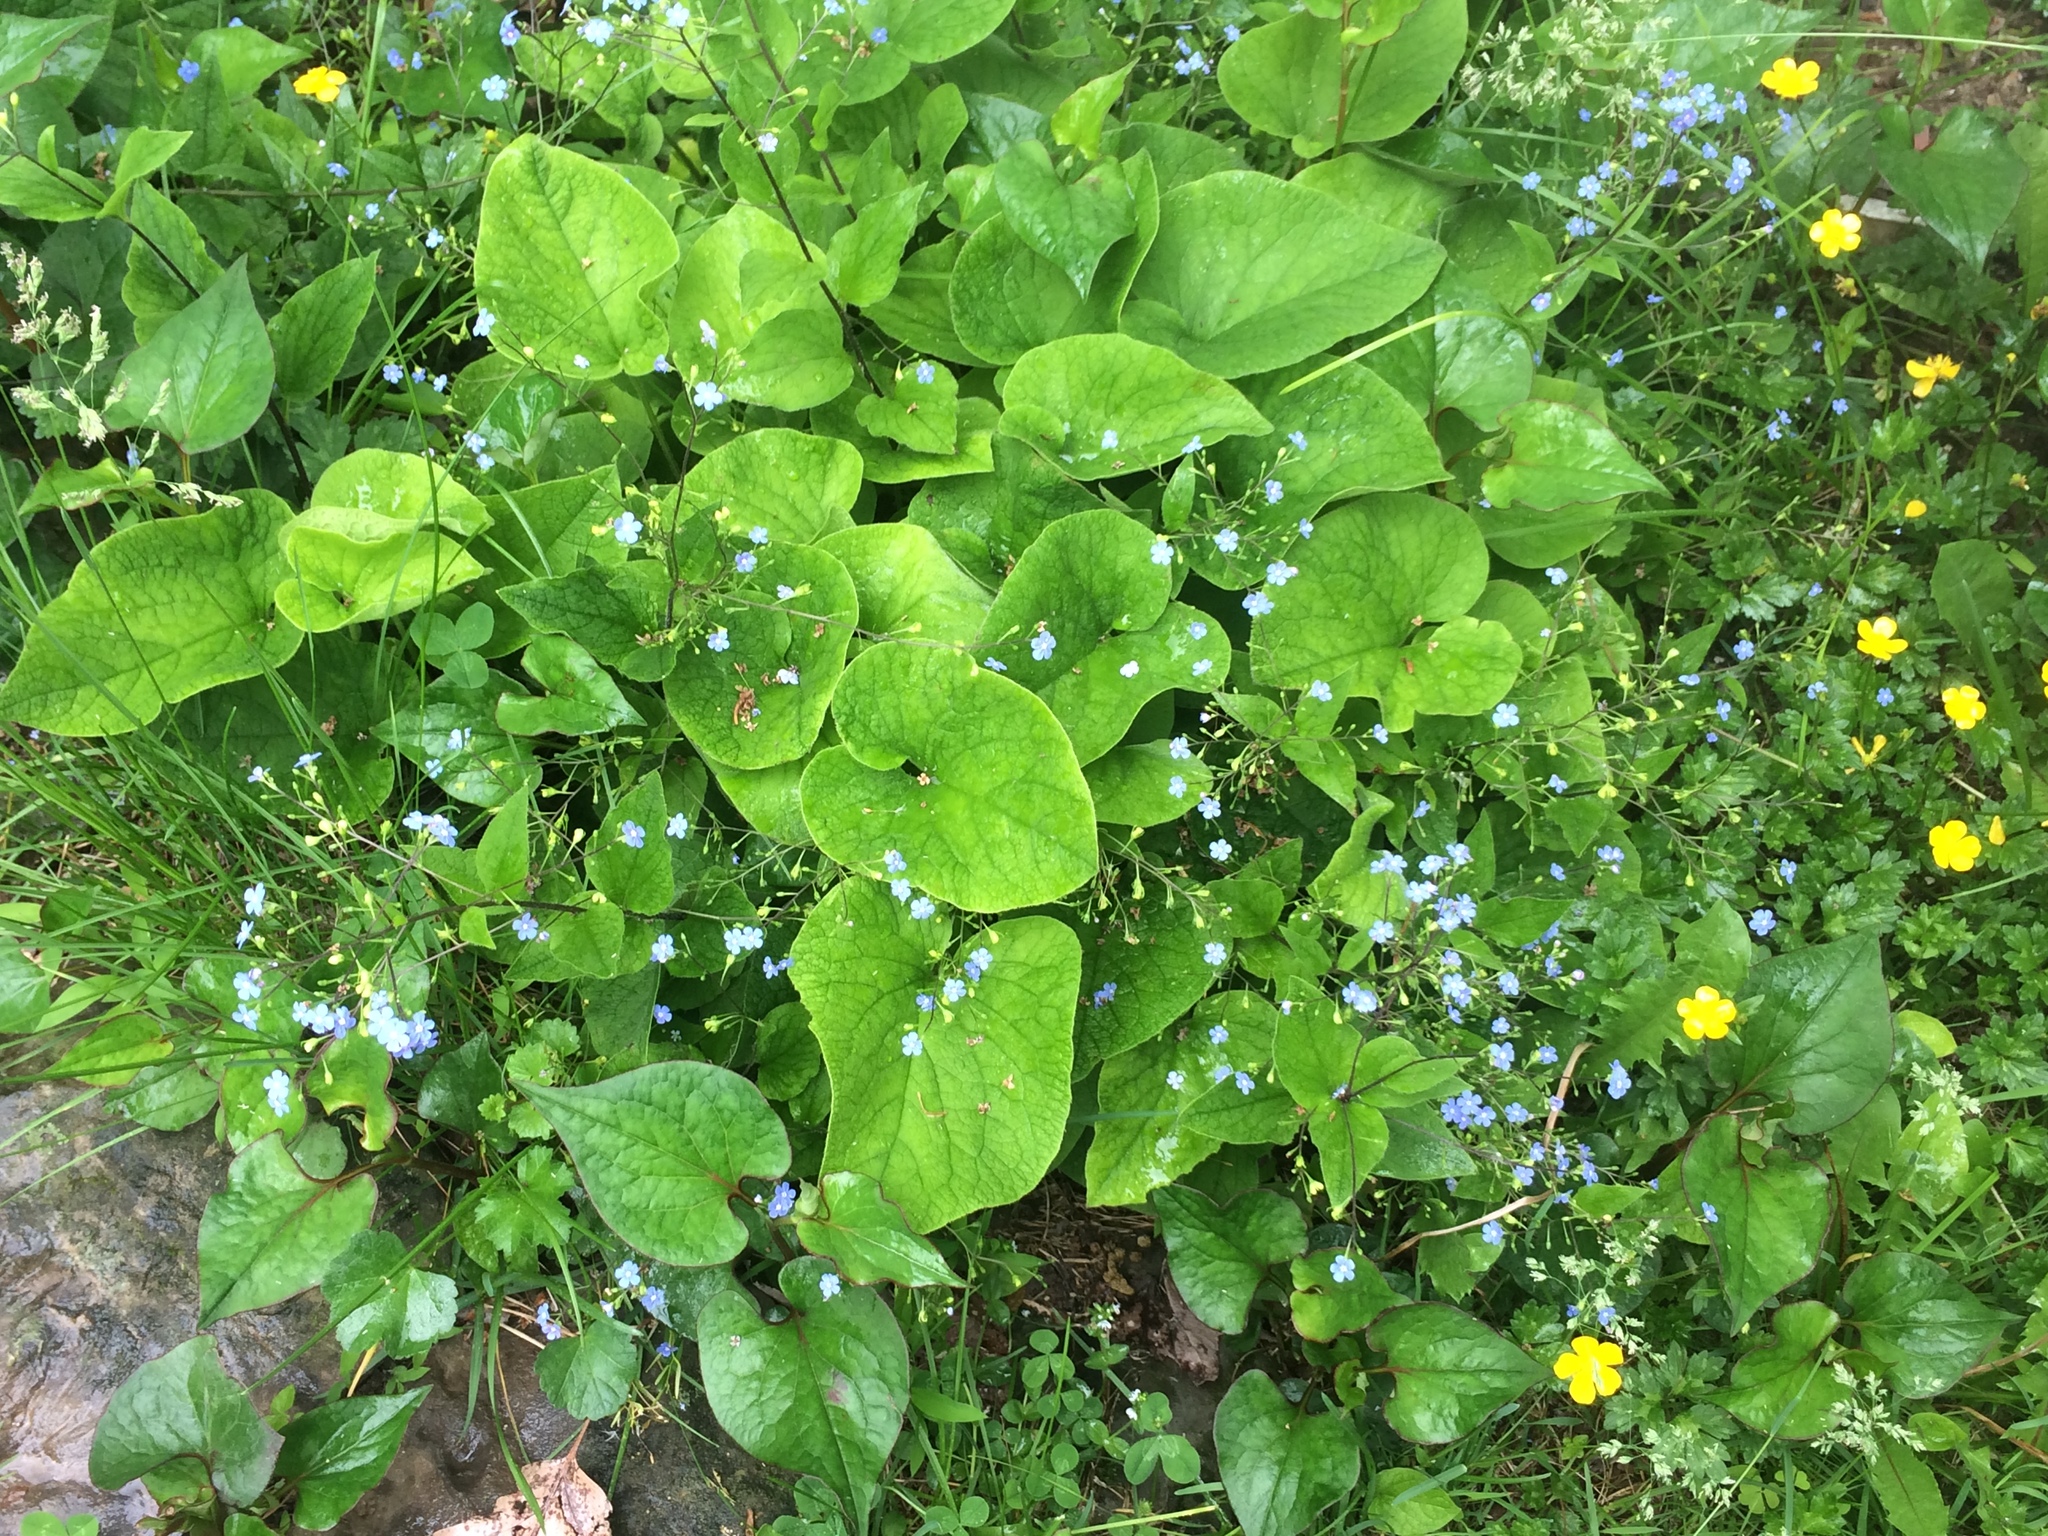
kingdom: Plantae
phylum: Tracheophyta
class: Magnoliopsida
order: Boraginales
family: Boraginaceae
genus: Brunnera
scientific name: Brunnera macrophylla
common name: Great forget-me-not
